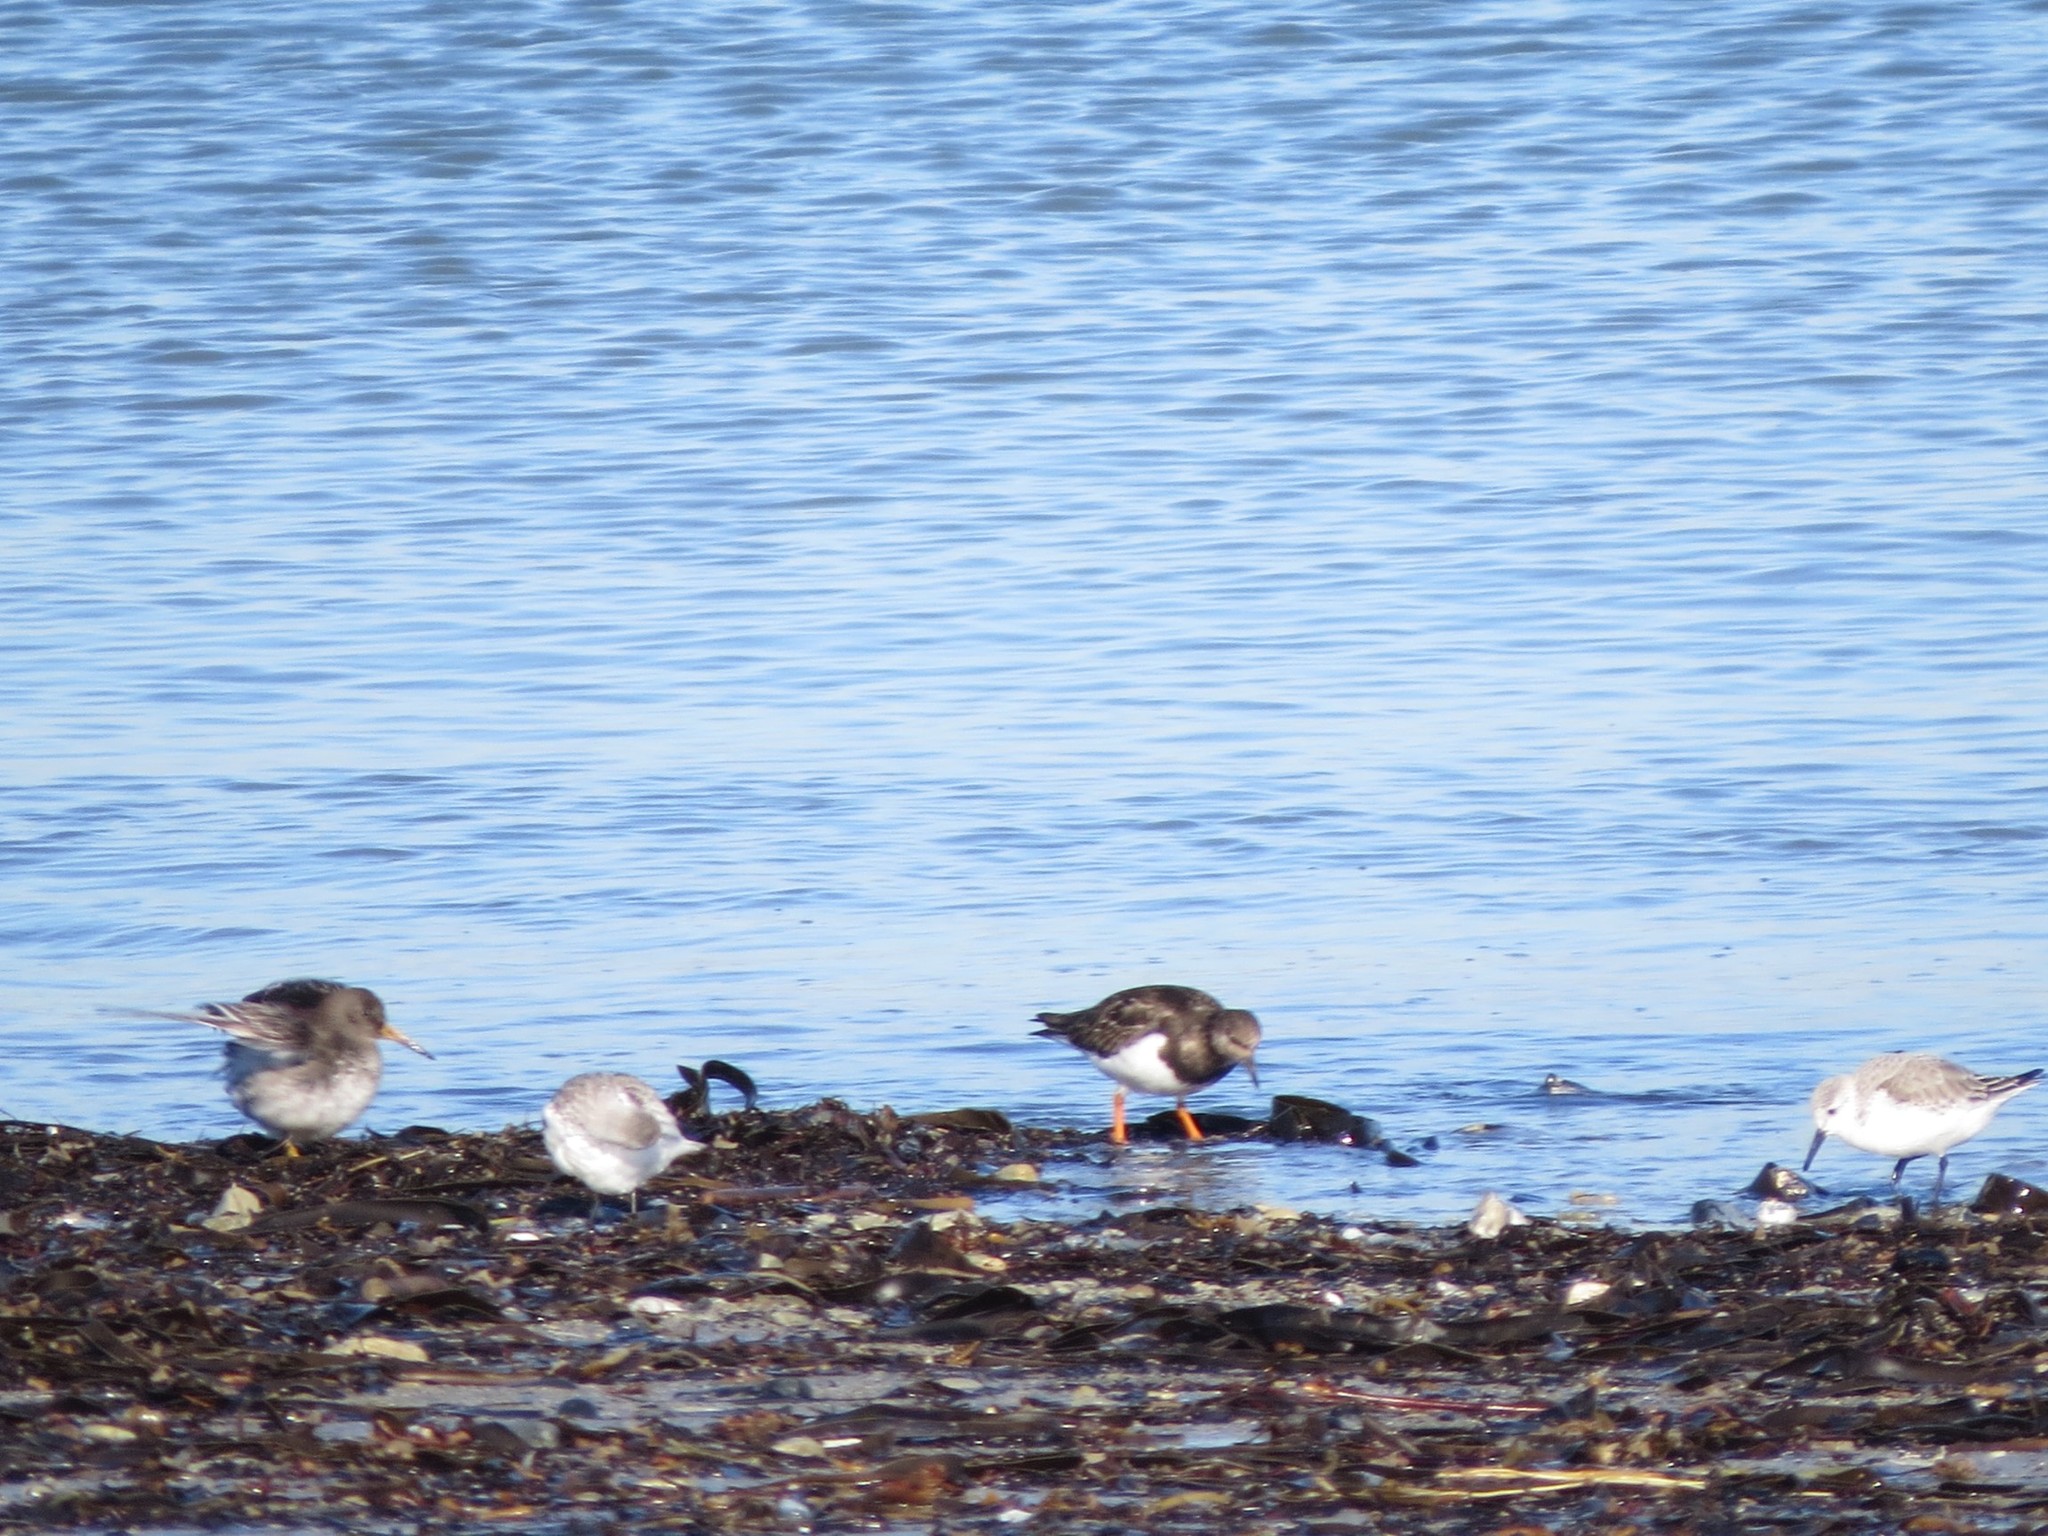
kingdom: Animalia
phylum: Chordata
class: Aves
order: Charadriiformes
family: Scolopacidae
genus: Calidris
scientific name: Calidris alba
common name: Sanderling
